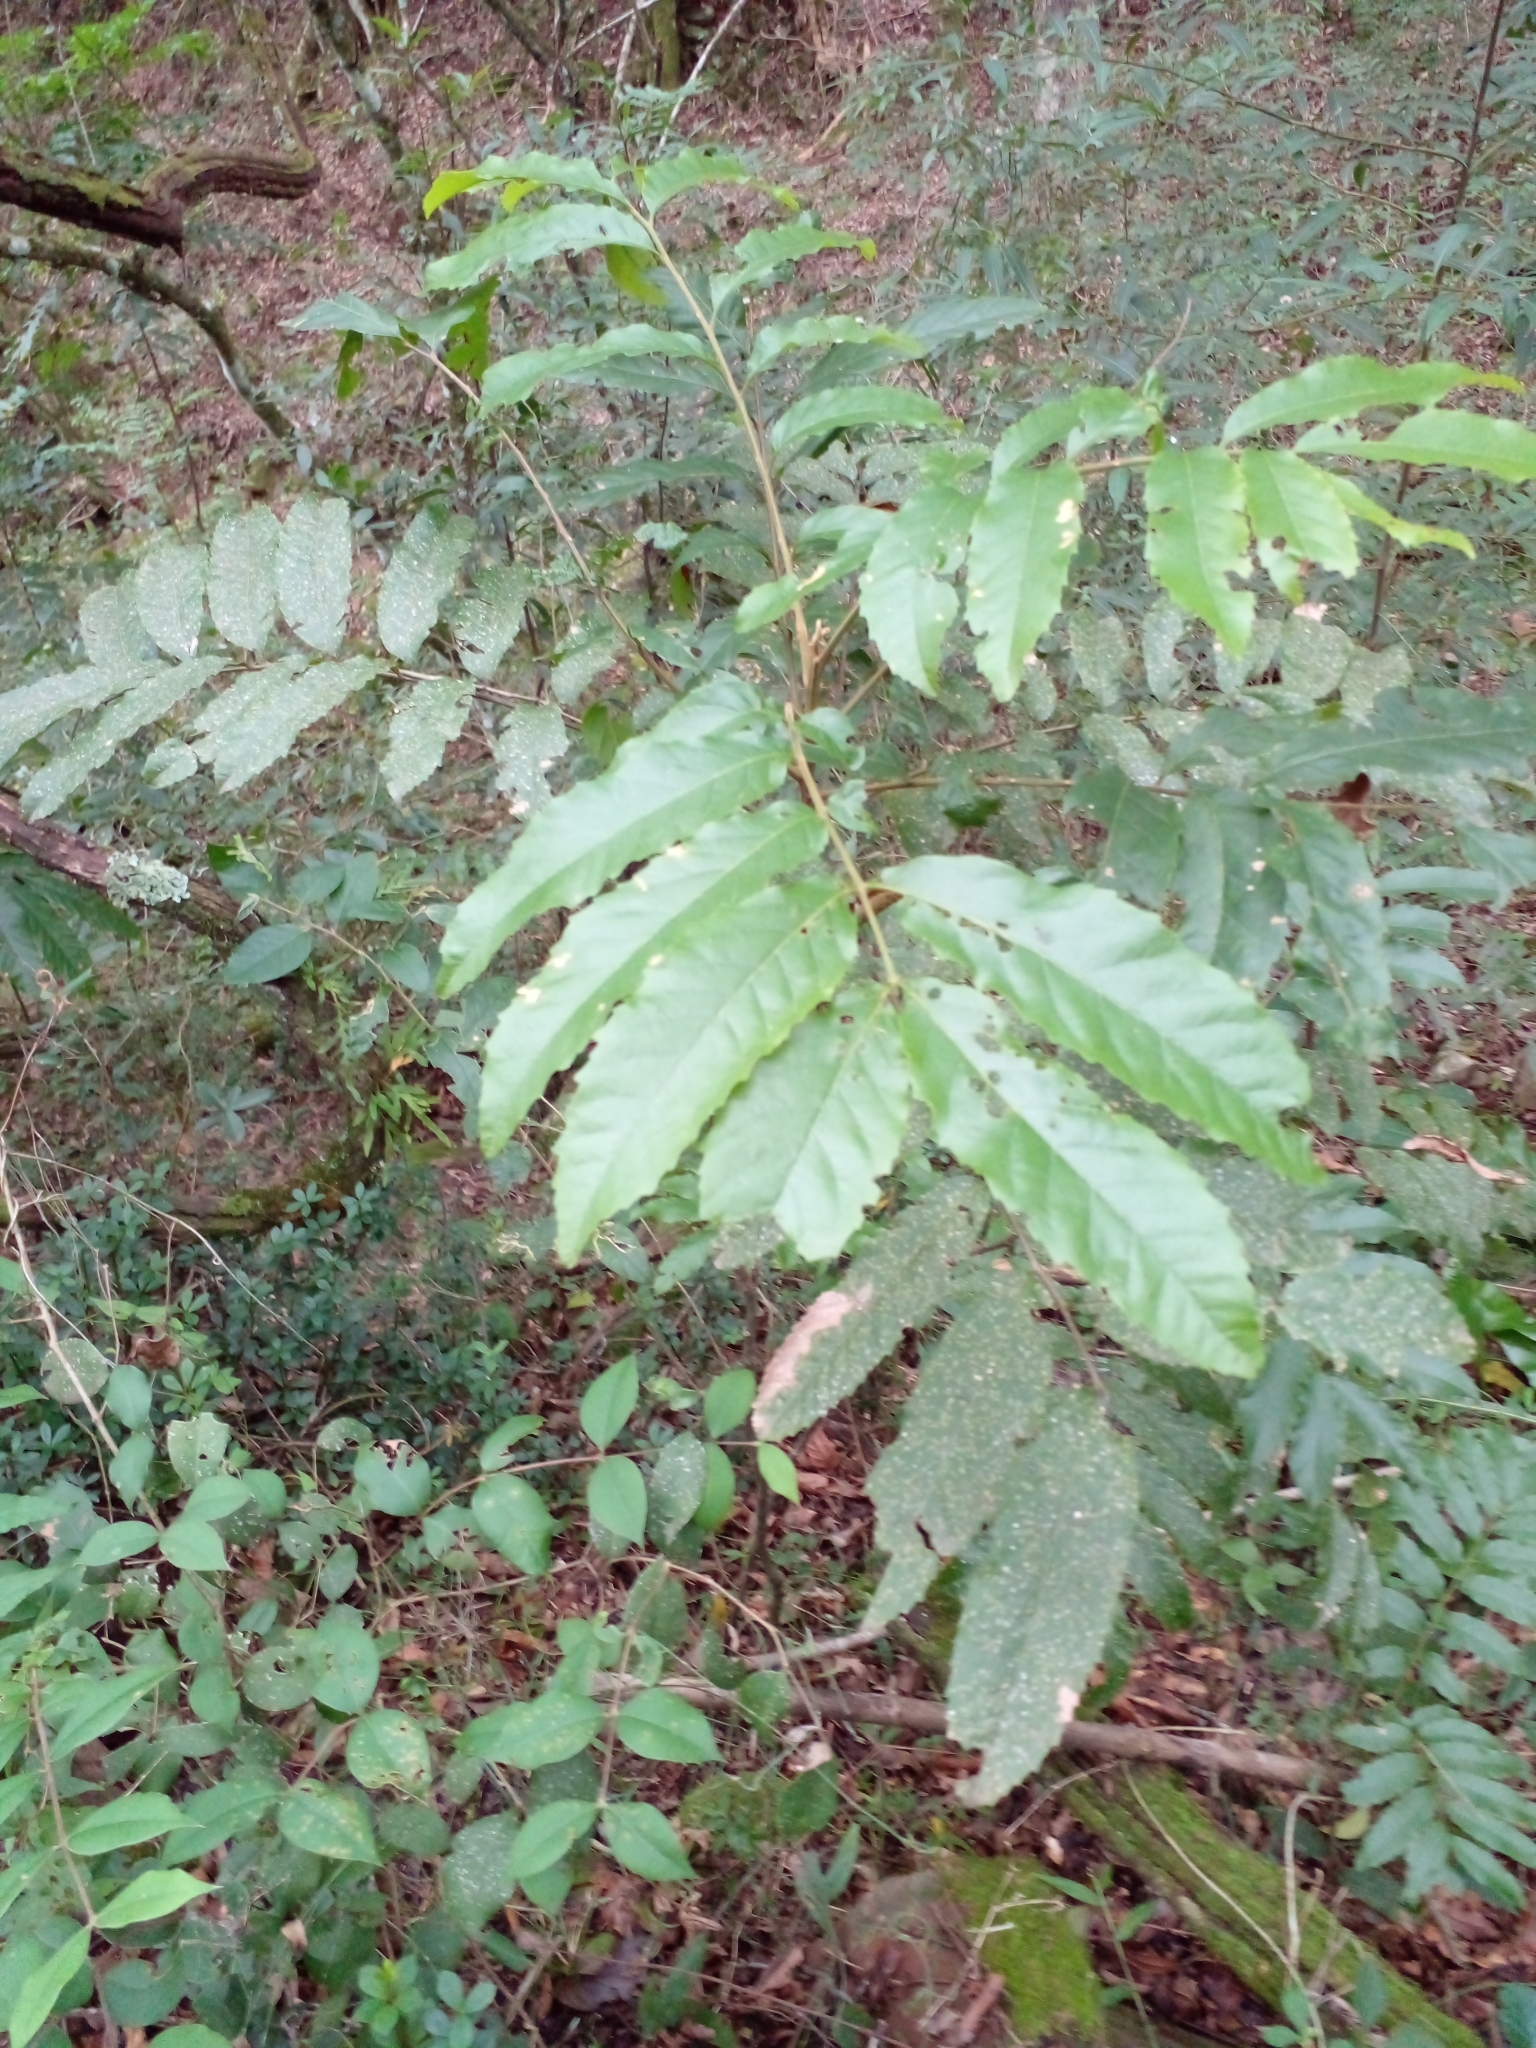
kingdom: Plantae
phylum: Tracheophyta
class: Magnoliopsida
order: Sapindales
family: Sapindaceae
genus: Cupania
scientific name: Cupania vernalis
